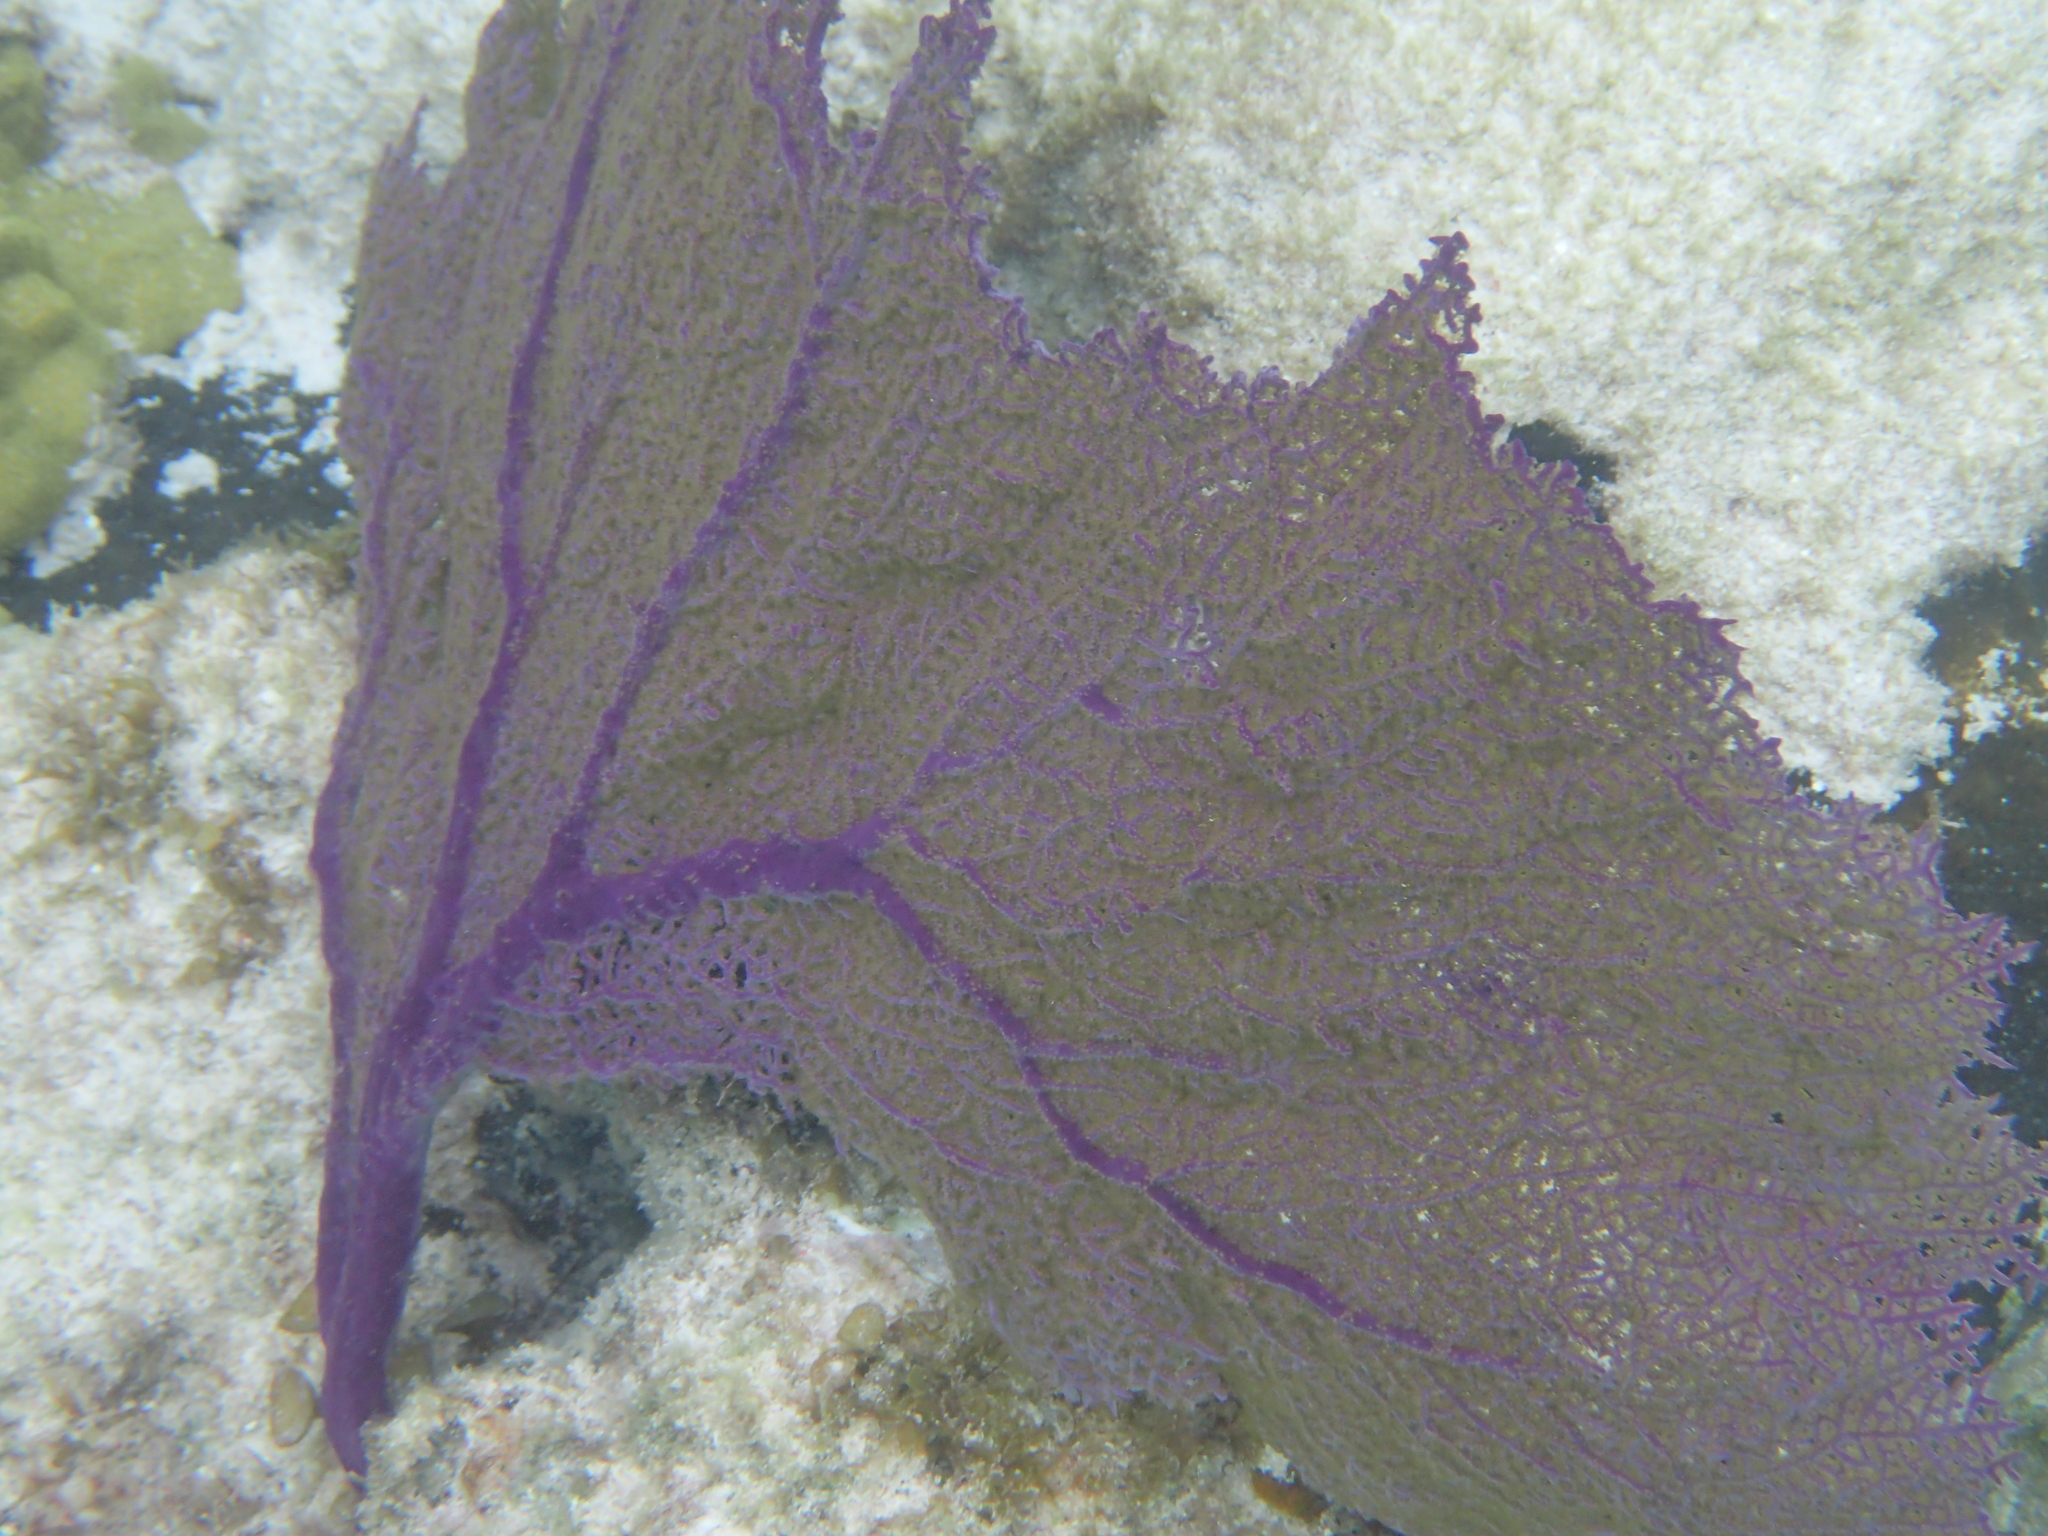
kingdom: Animalia
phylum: Cnidaria
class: Anthozoa
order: Malacalcyonacea
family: Gorgoniidae
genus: Gorgonia
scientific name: Gorgonia ventalina
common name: Common sea fan
